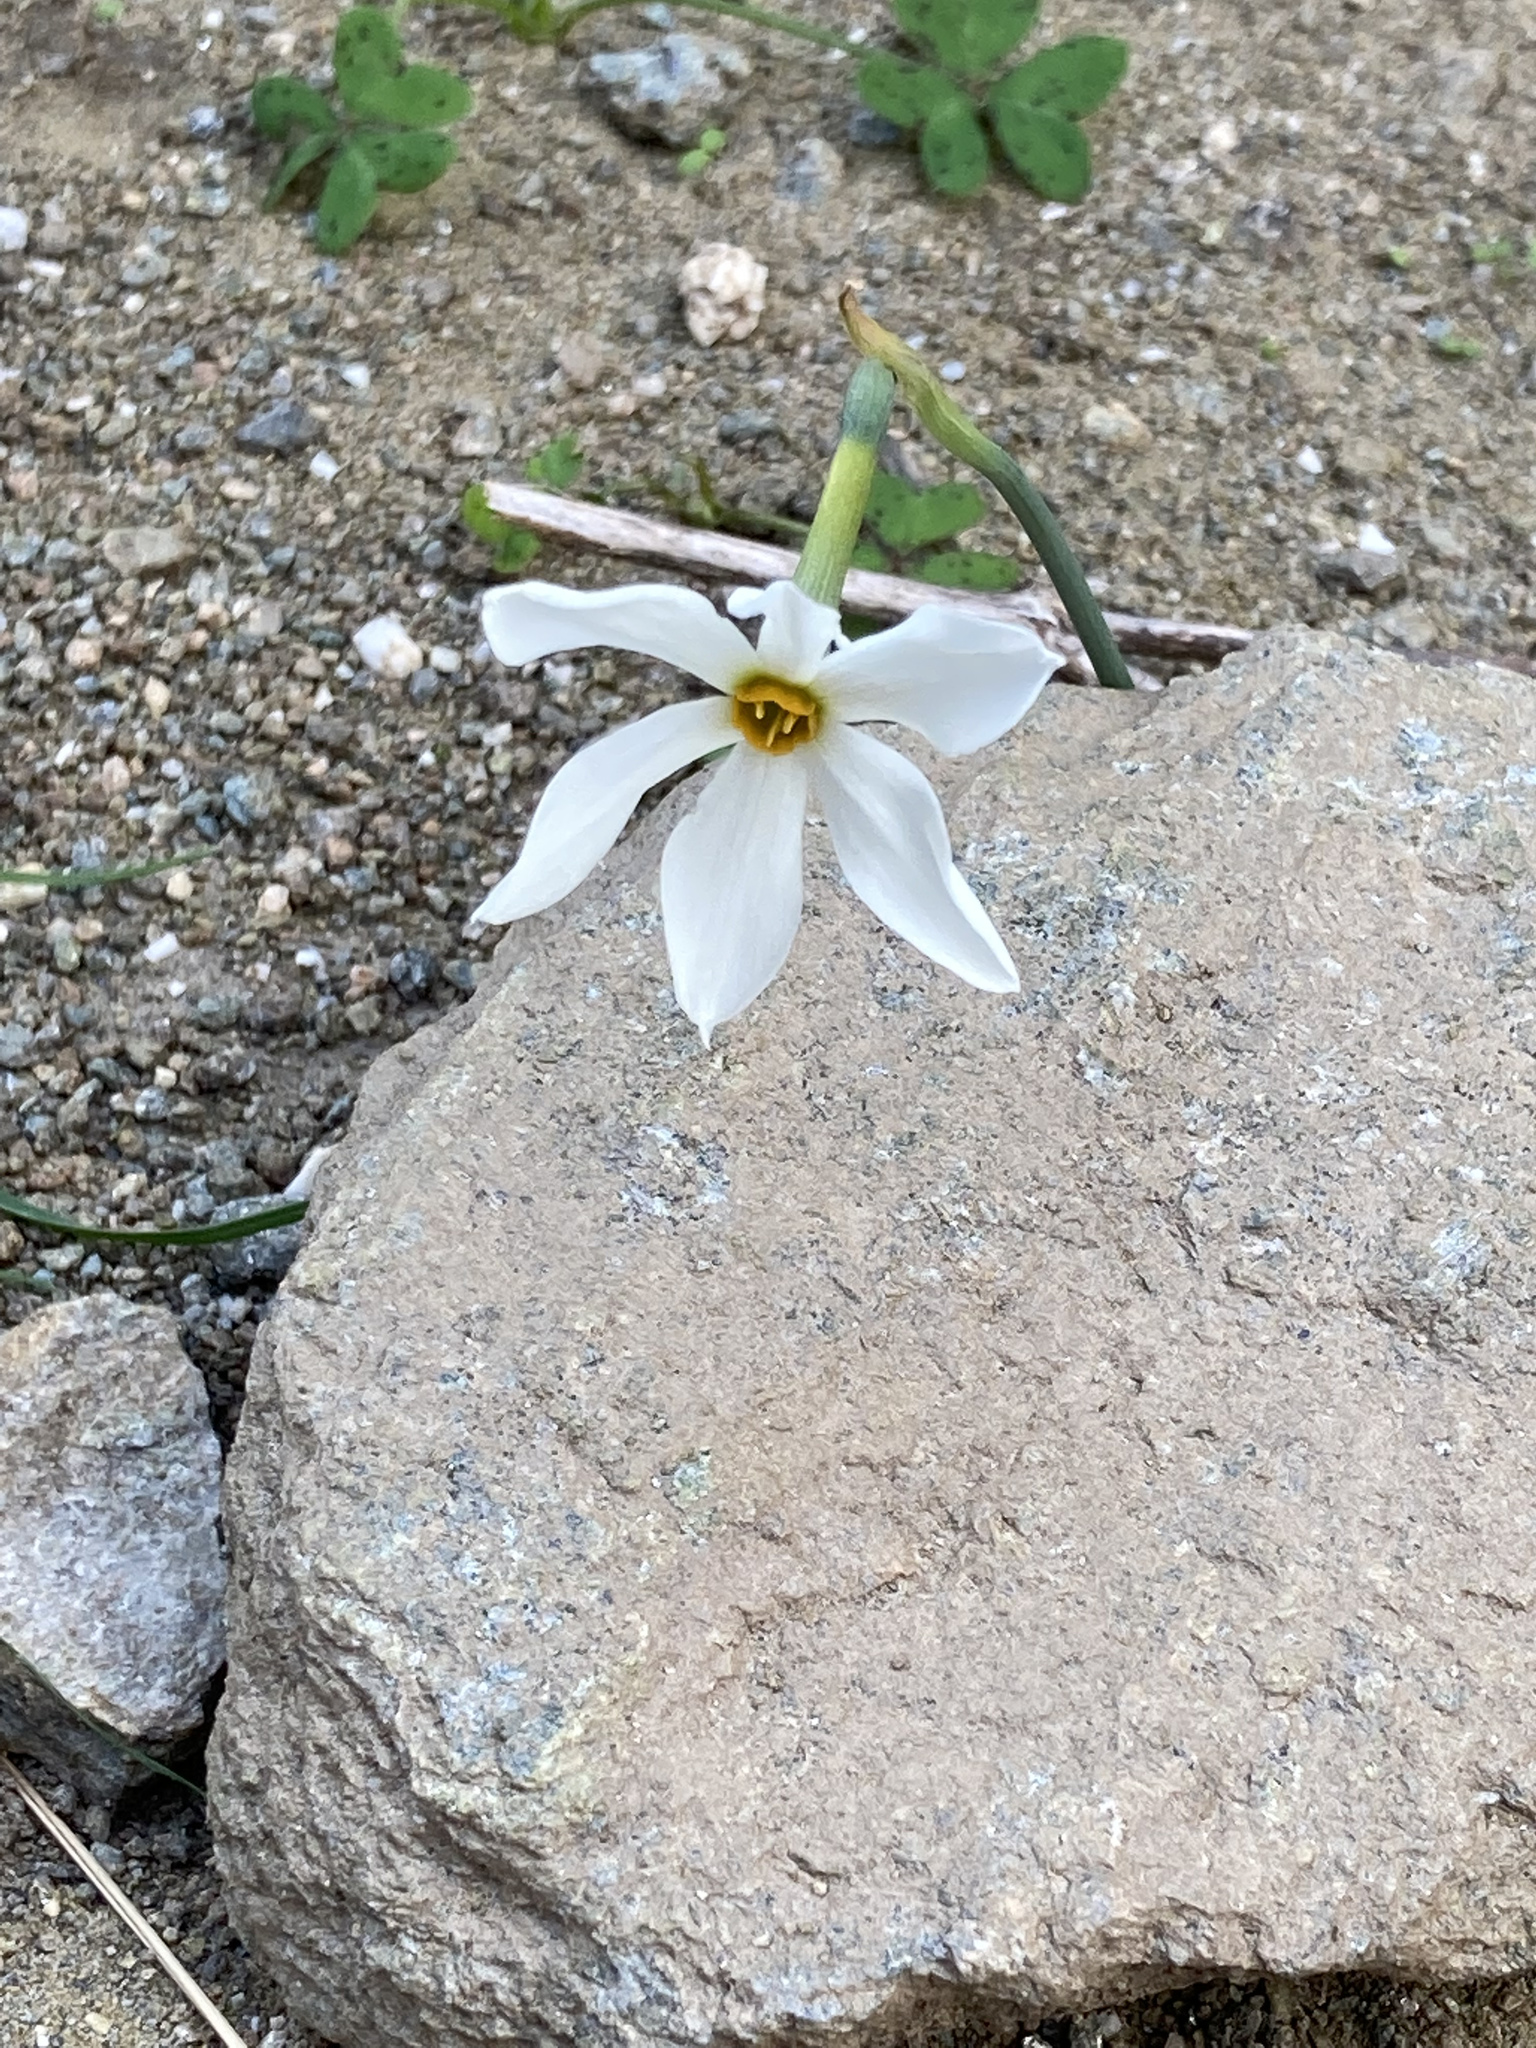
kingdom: Plantae
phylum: Tracheophyta
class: Liliopsida
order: Asparagales
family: Amaryllidaceae
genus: Narcissus
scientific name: Narcissus deficiens
